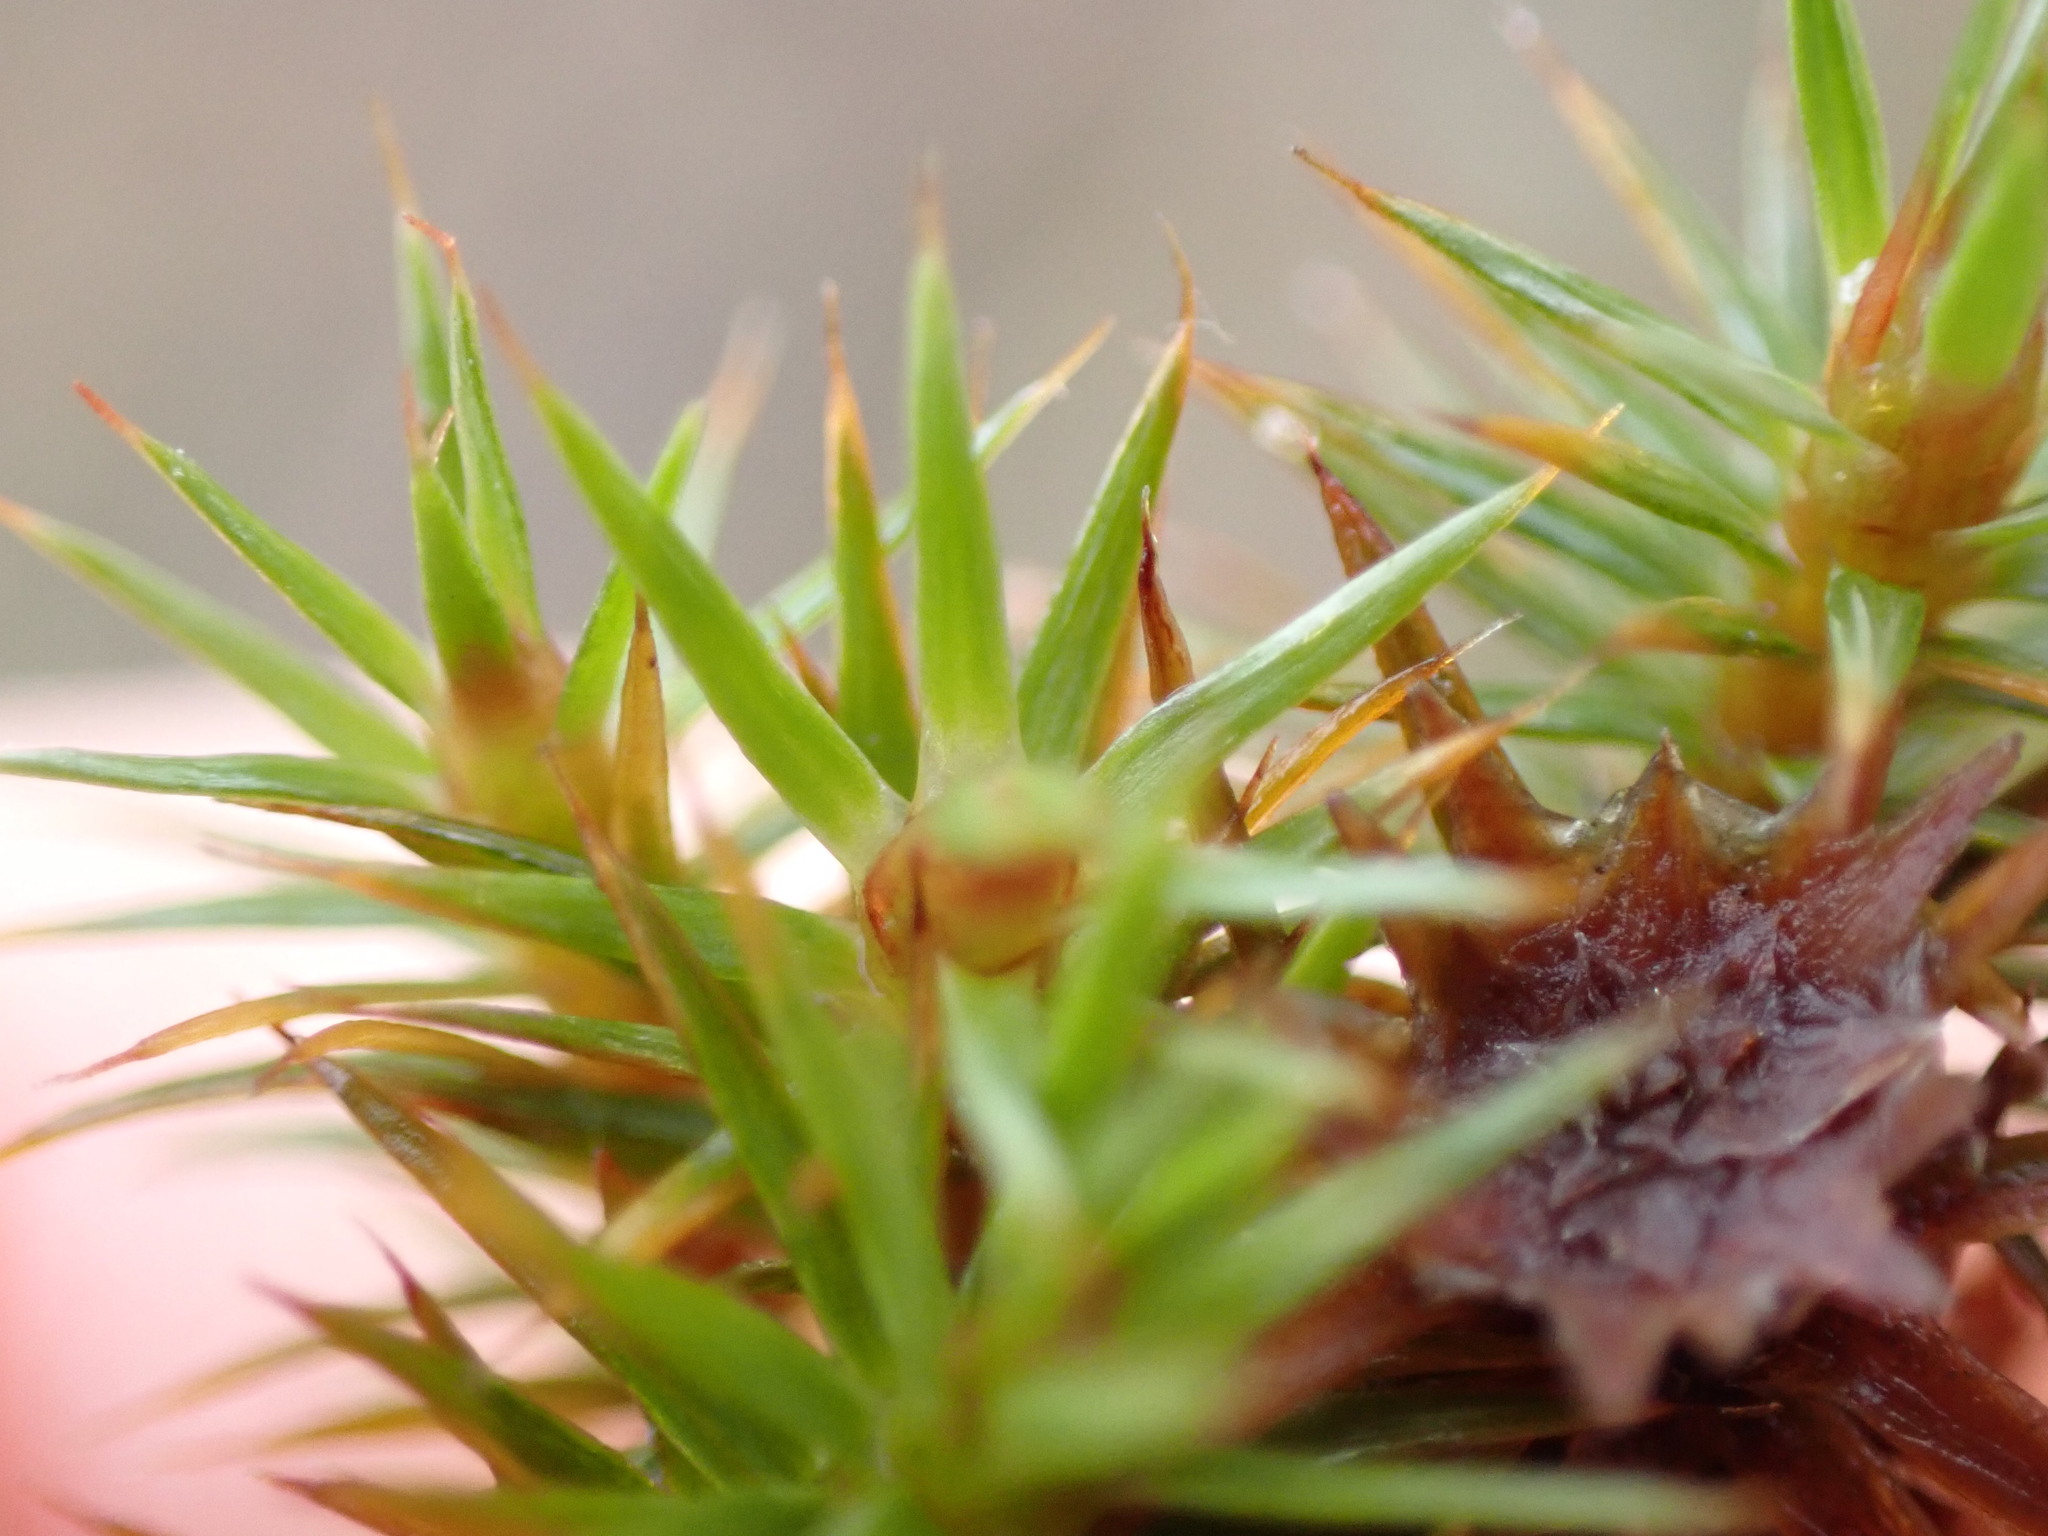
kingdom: Plantae
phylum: Bryophyta
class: Polytrichopsida
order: Polytrichales
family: Polytrichaceae
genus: Polytrichum
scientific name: Polytrichum juniperinum
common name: Juniper haircap moss
